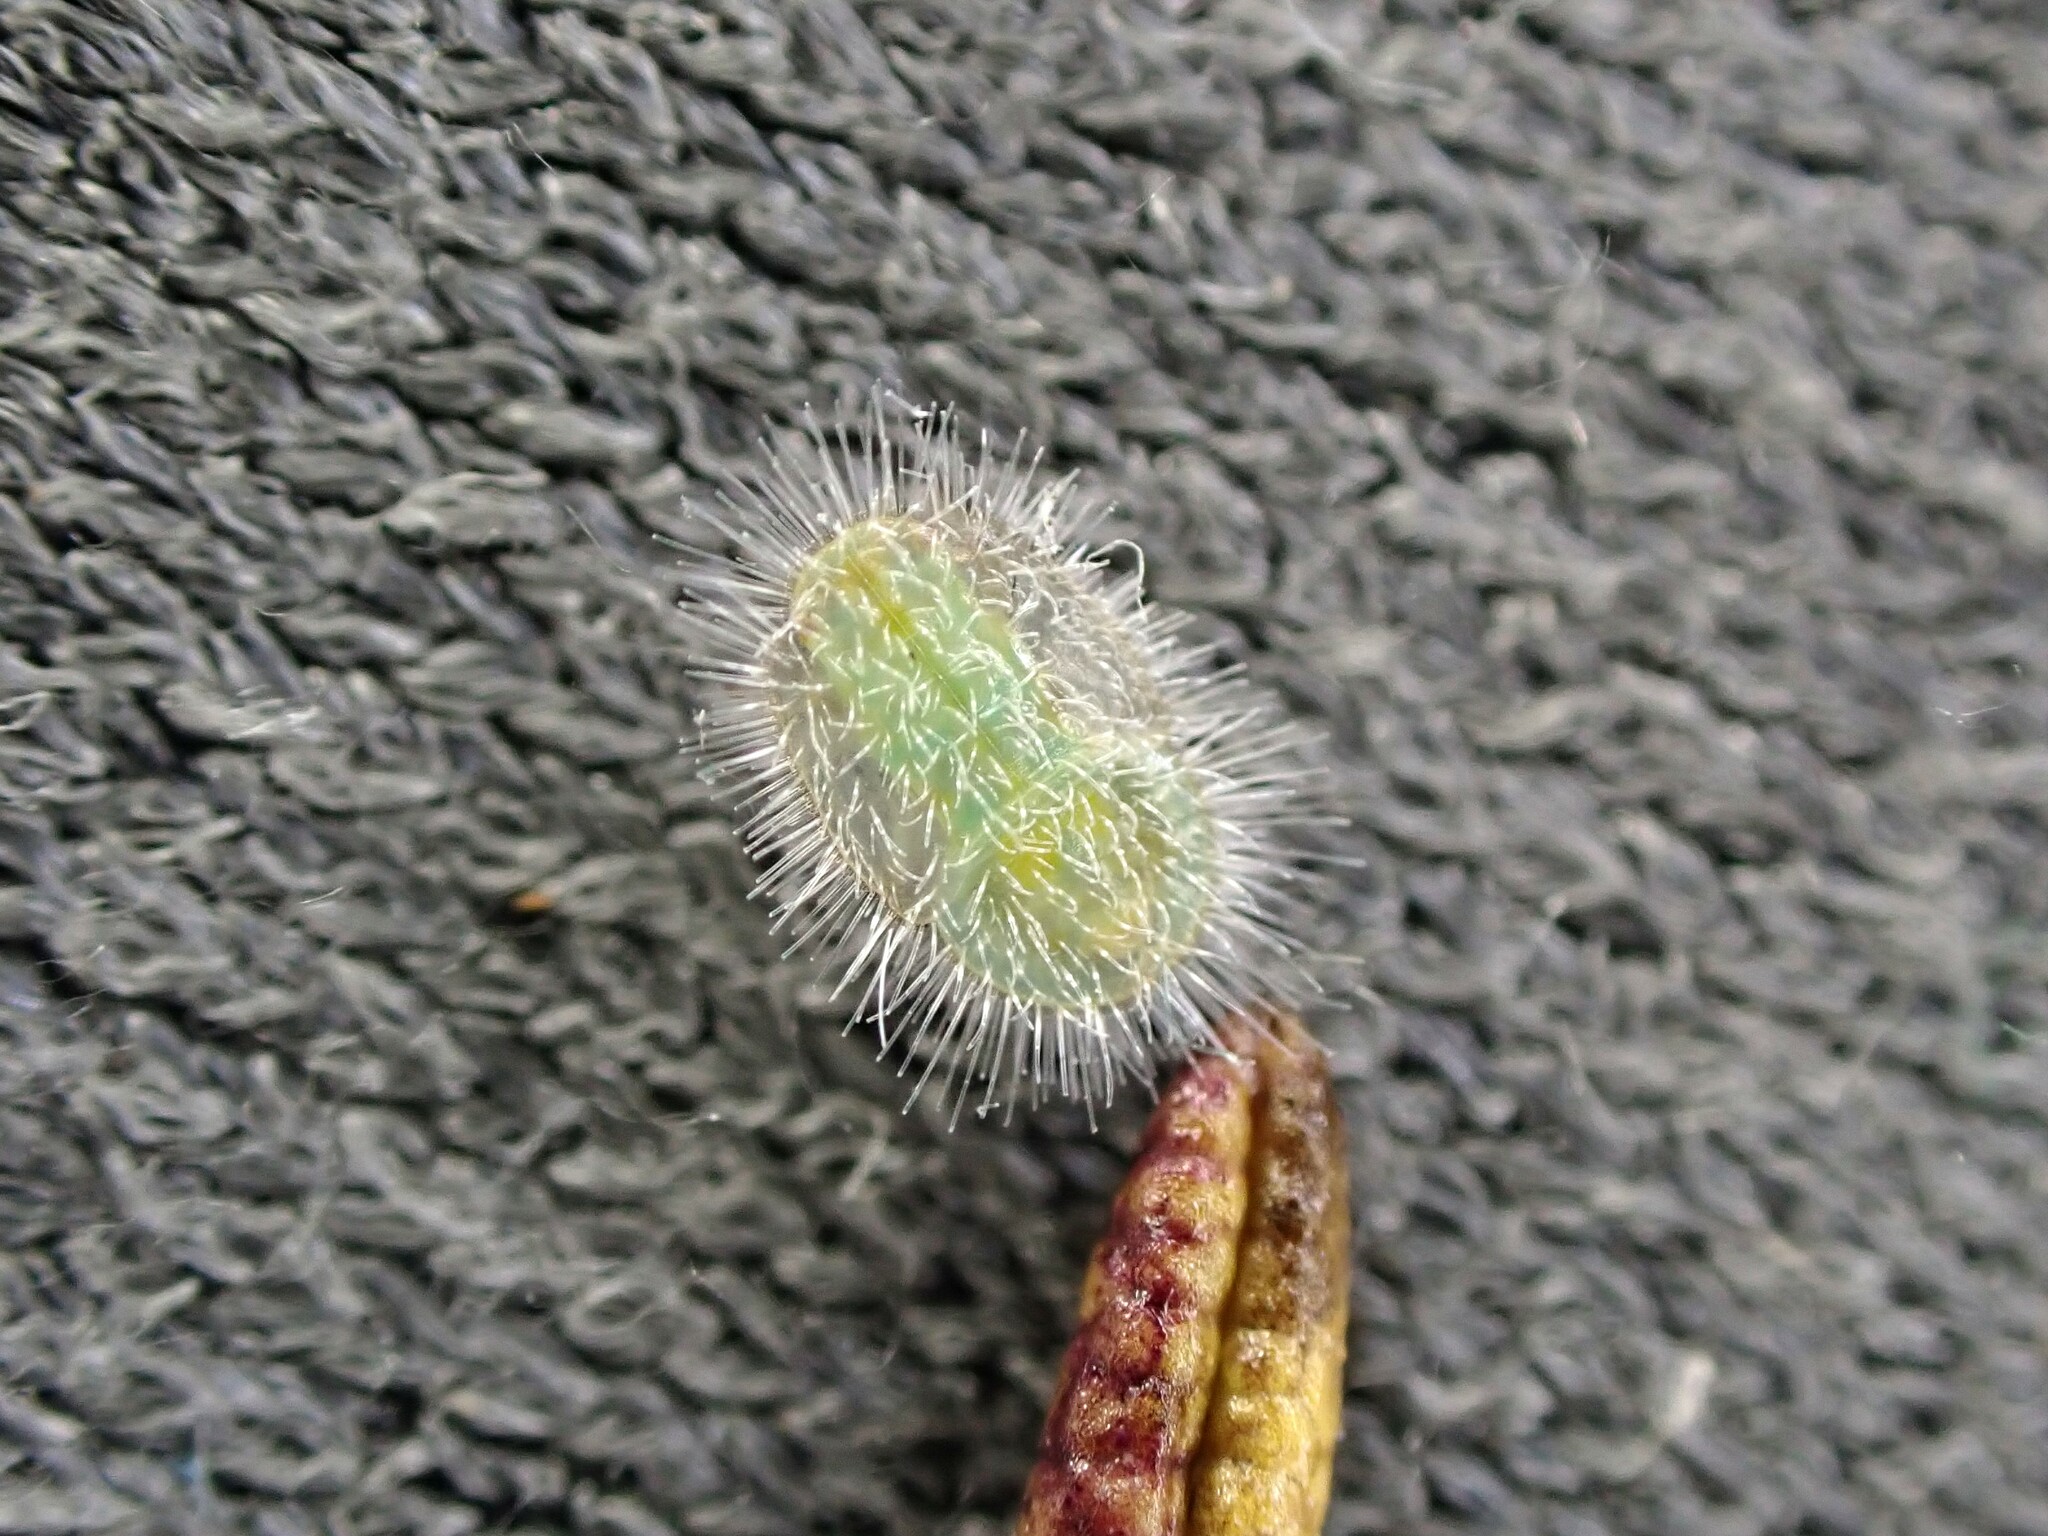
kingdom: Animalia
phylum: Arthropoda
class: Insecta
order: Hemiptera
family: Triozidae
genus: Powellia
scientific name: Powellia vitreoradiata
